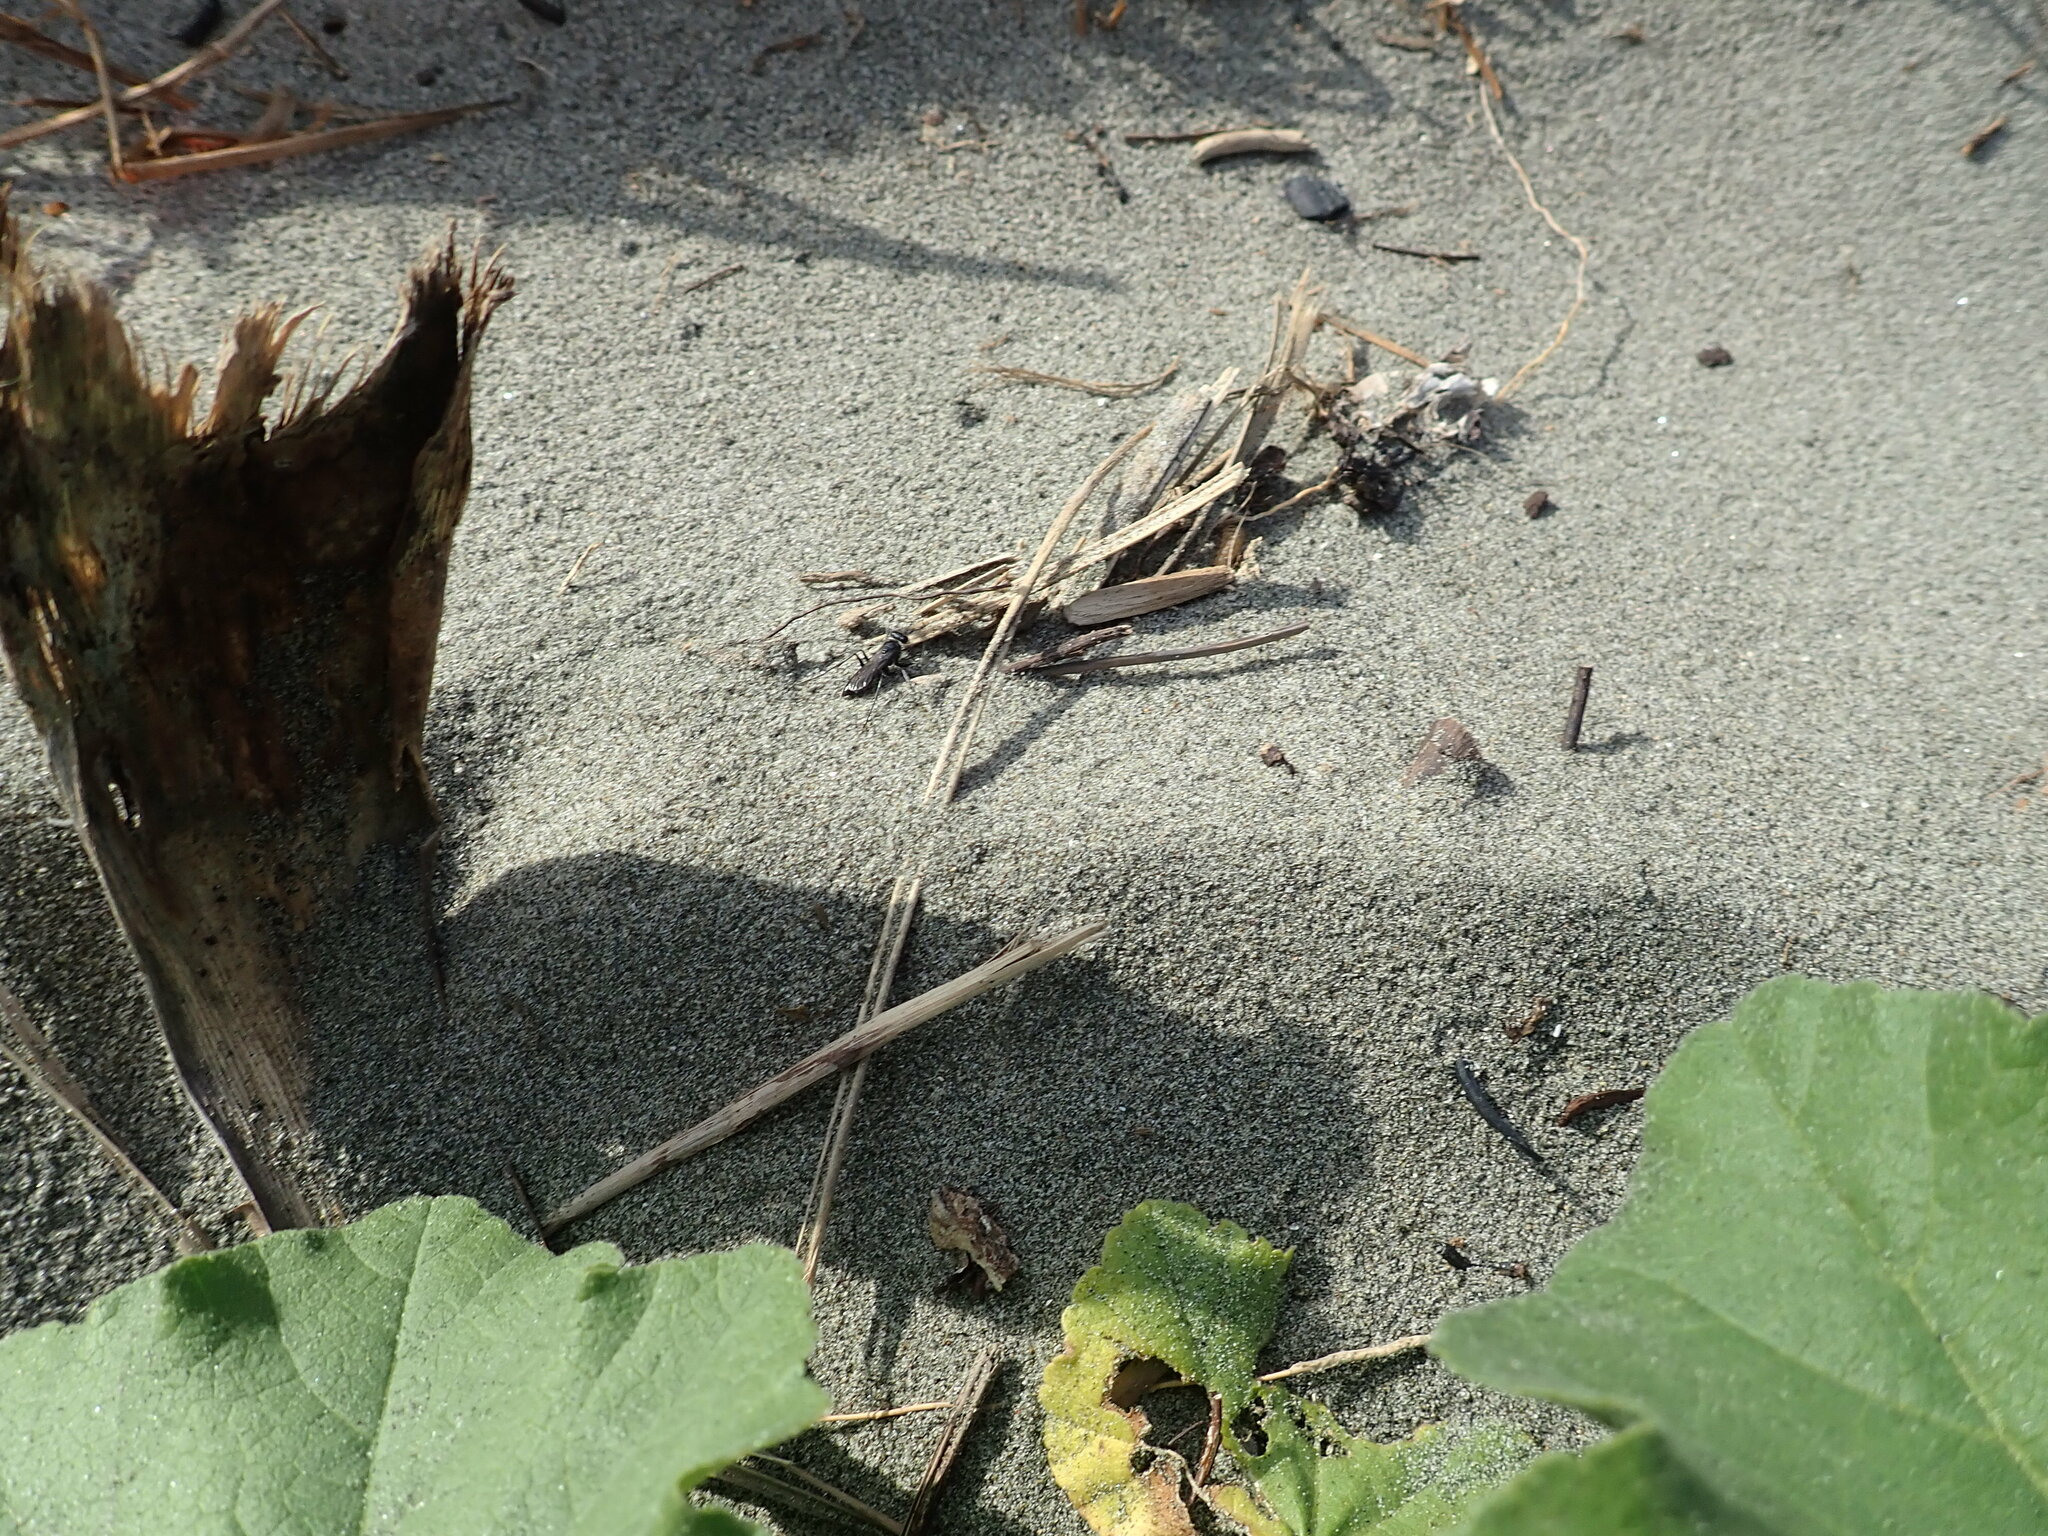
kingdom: Animalia
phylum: Arthropoda
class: Insecta
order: Hymenoptera
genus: Trichocurgus
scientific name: Trichocurgus
